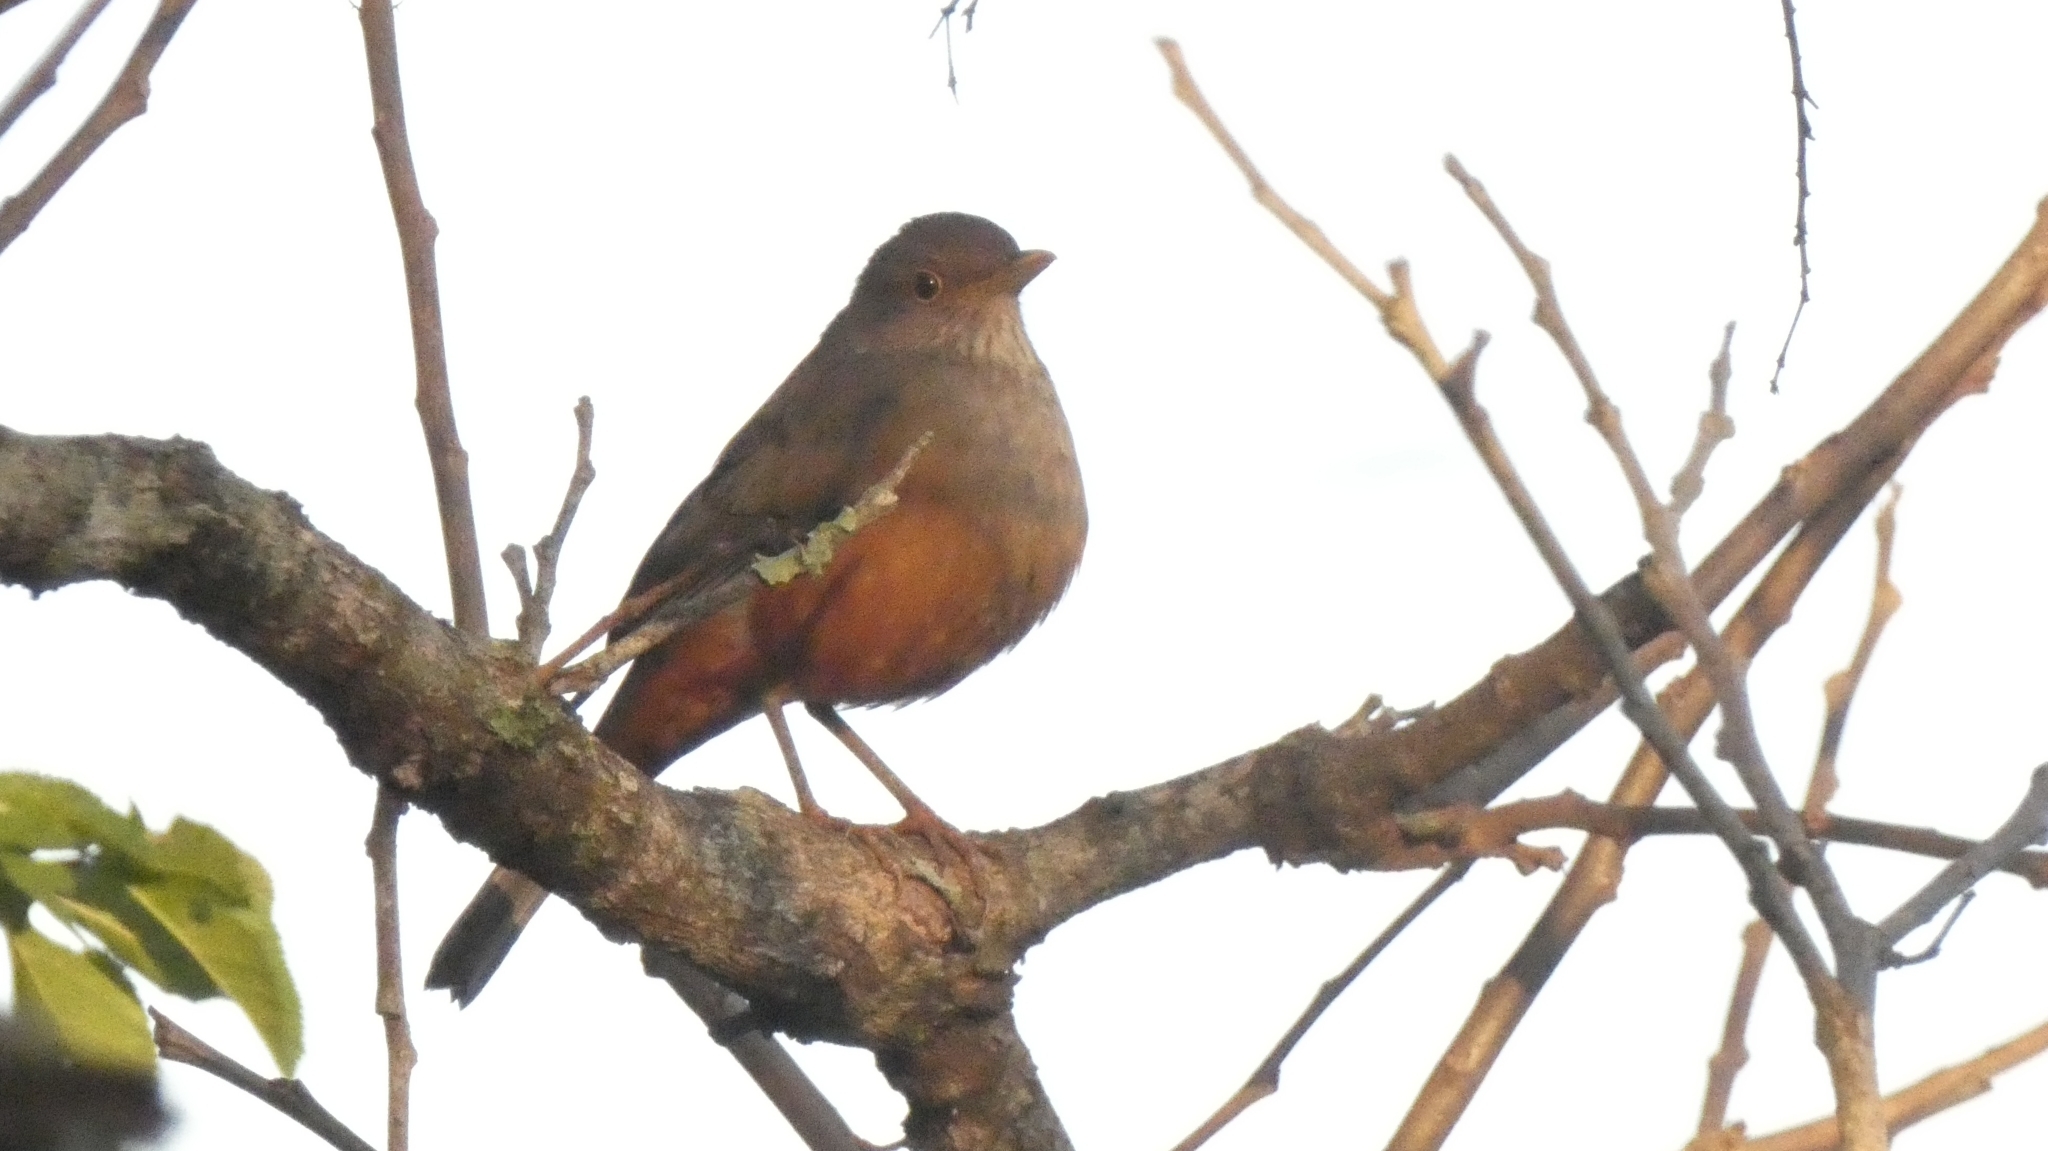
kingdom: Animalia
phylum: Chordata
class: Aves
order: Passeriformes
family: Turdidae
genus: Turdus
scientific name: Turdus rufiventris
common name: Rufous-bellied thrush
